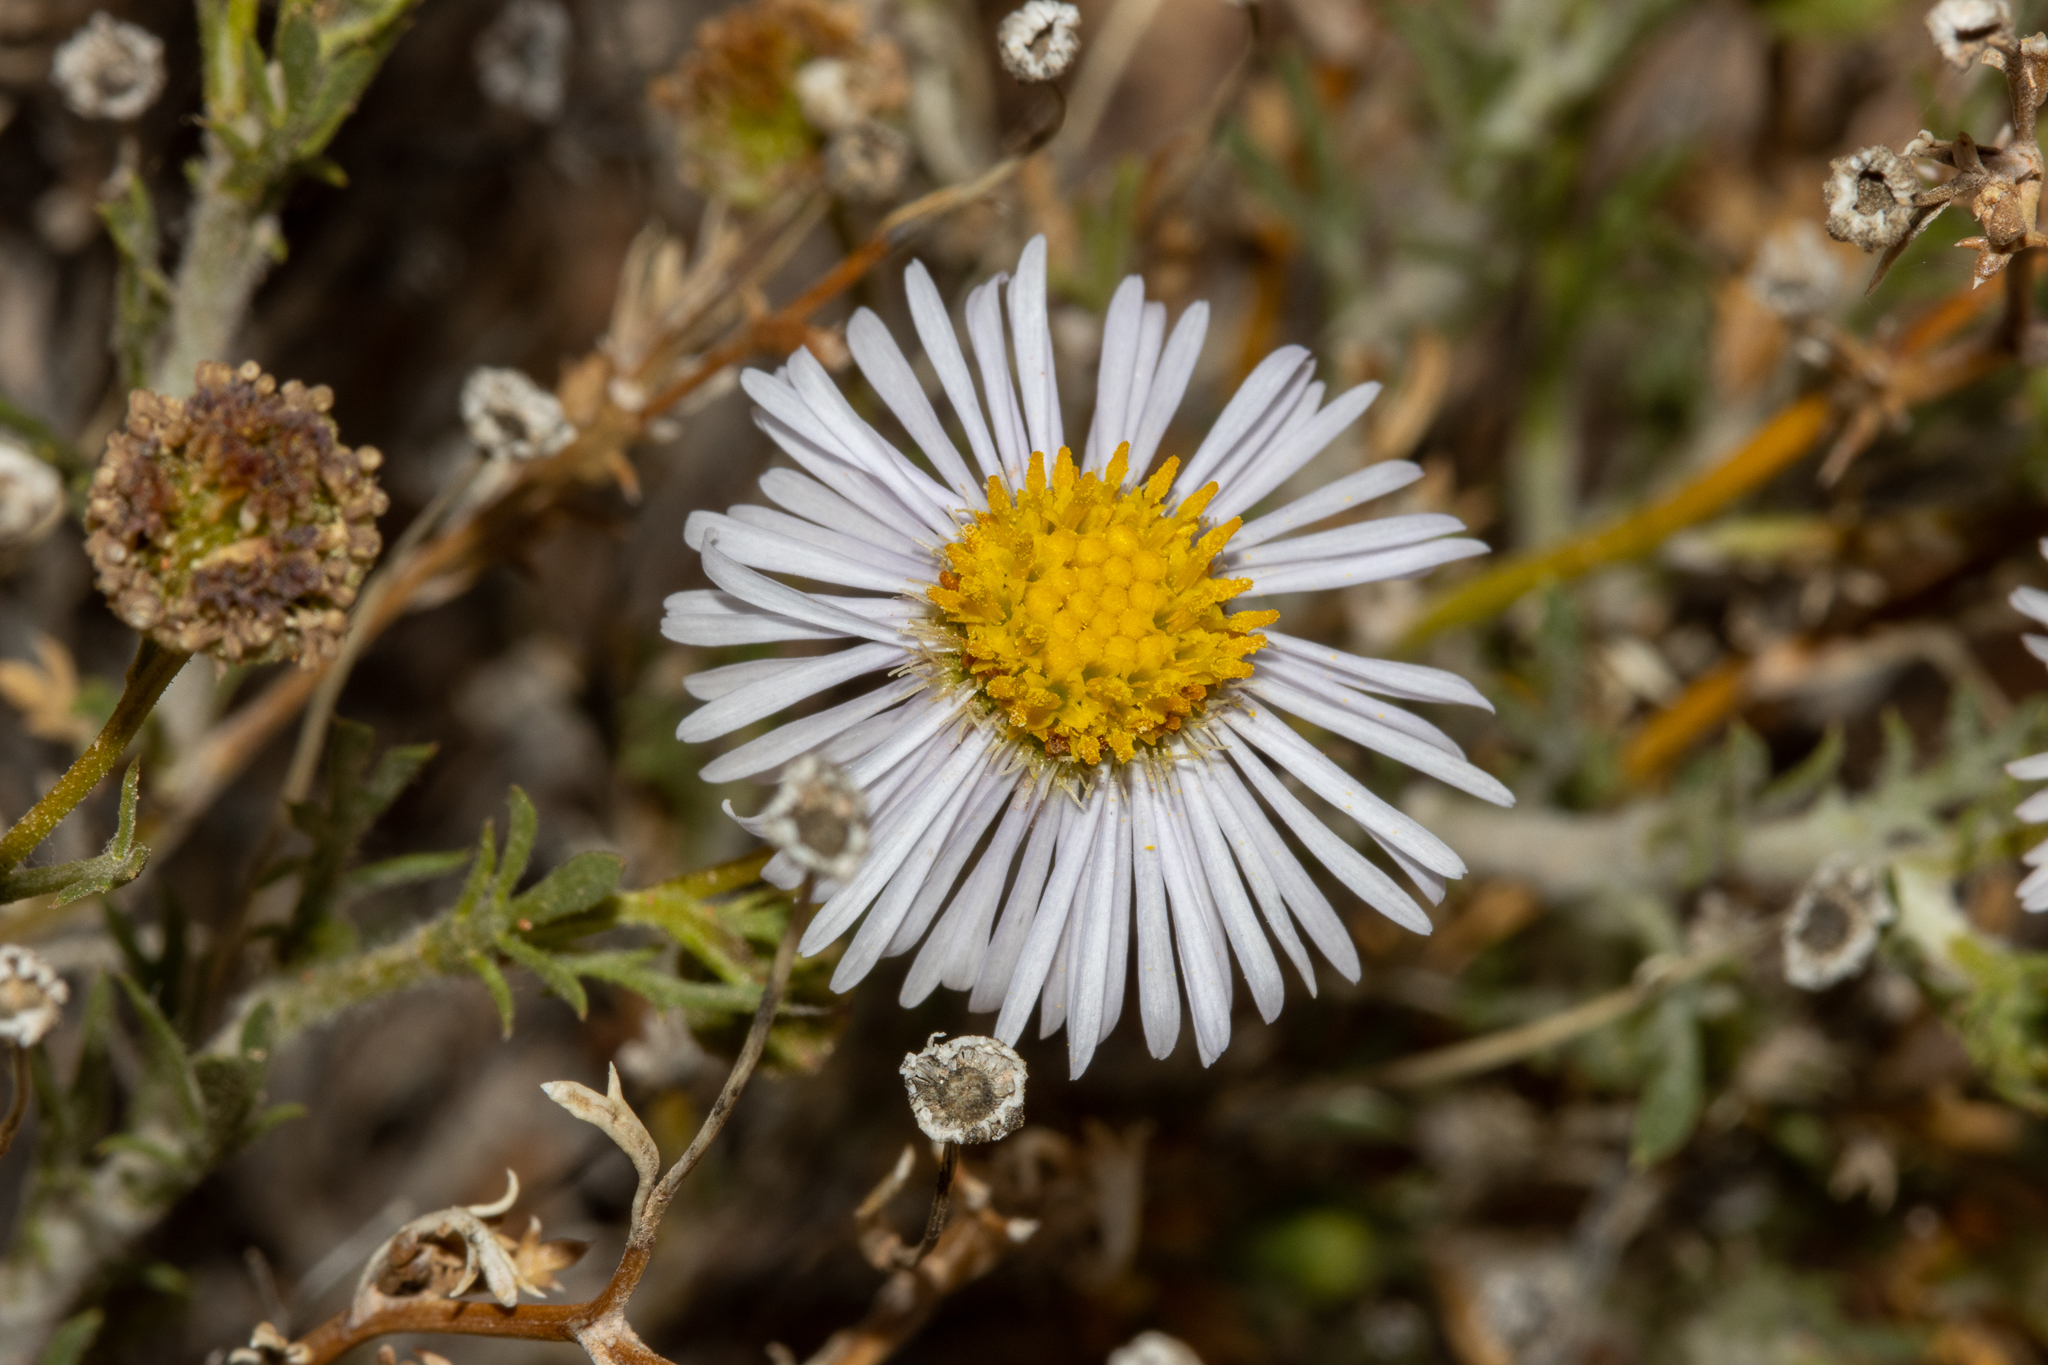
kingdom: Plantae
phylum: Tracheophyta
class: Magnoliopsida
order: Asterales
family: Asteraceae
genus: Brachyscome
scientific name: Brachyscome ciliaris
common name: Variable daisy
